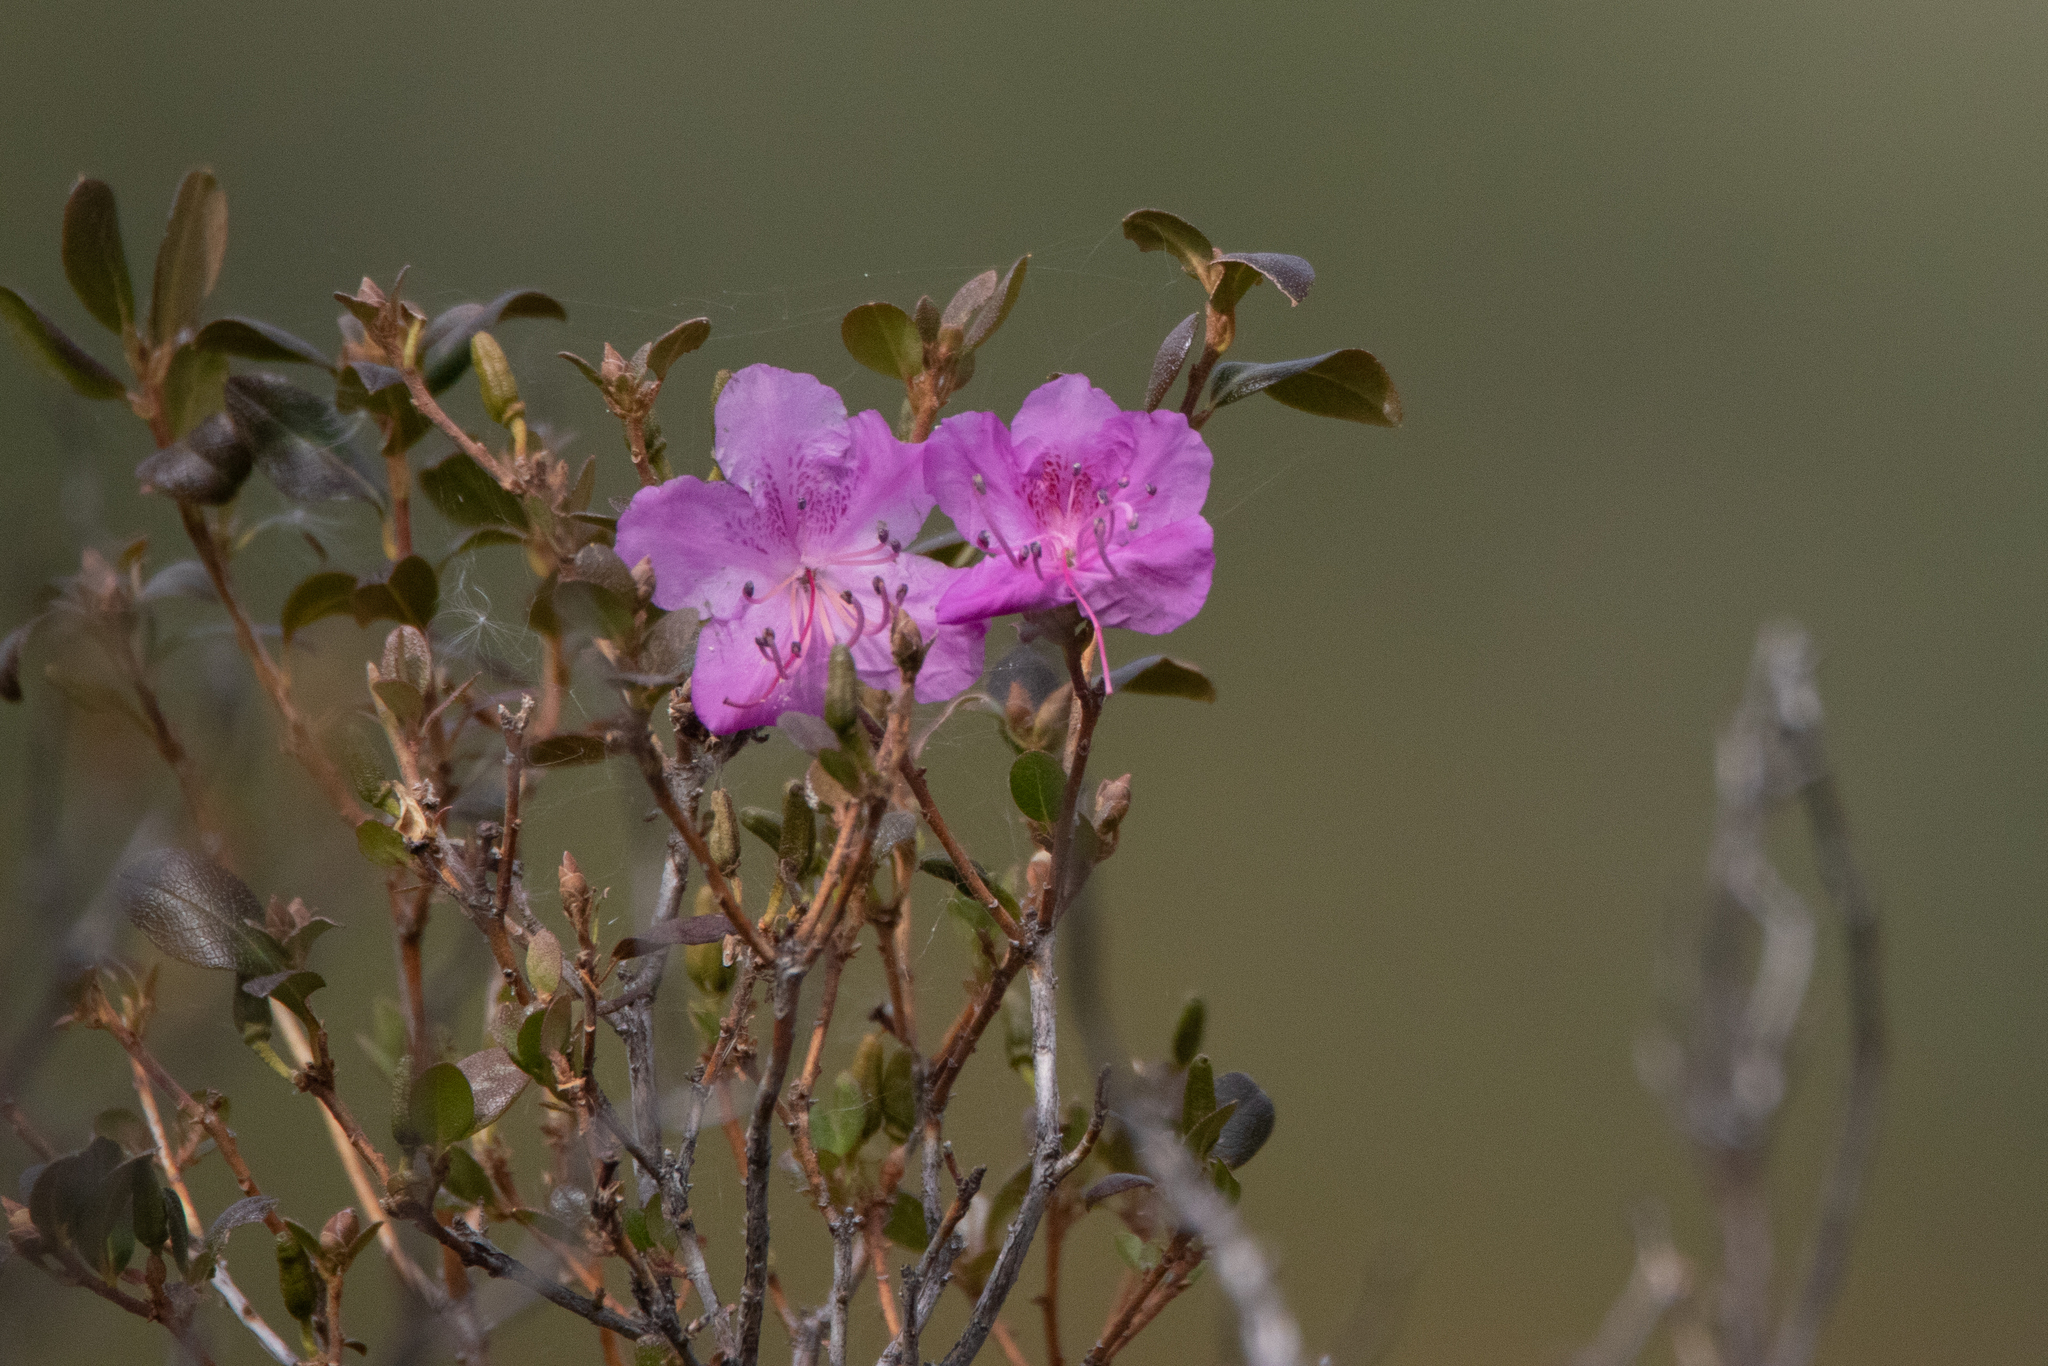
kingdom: Plantae
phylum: Tracheophyta
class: Magnoliopsida
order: Ericales
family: Ericaceae
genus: Rhododendron
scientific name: Rhododendron dauricum
